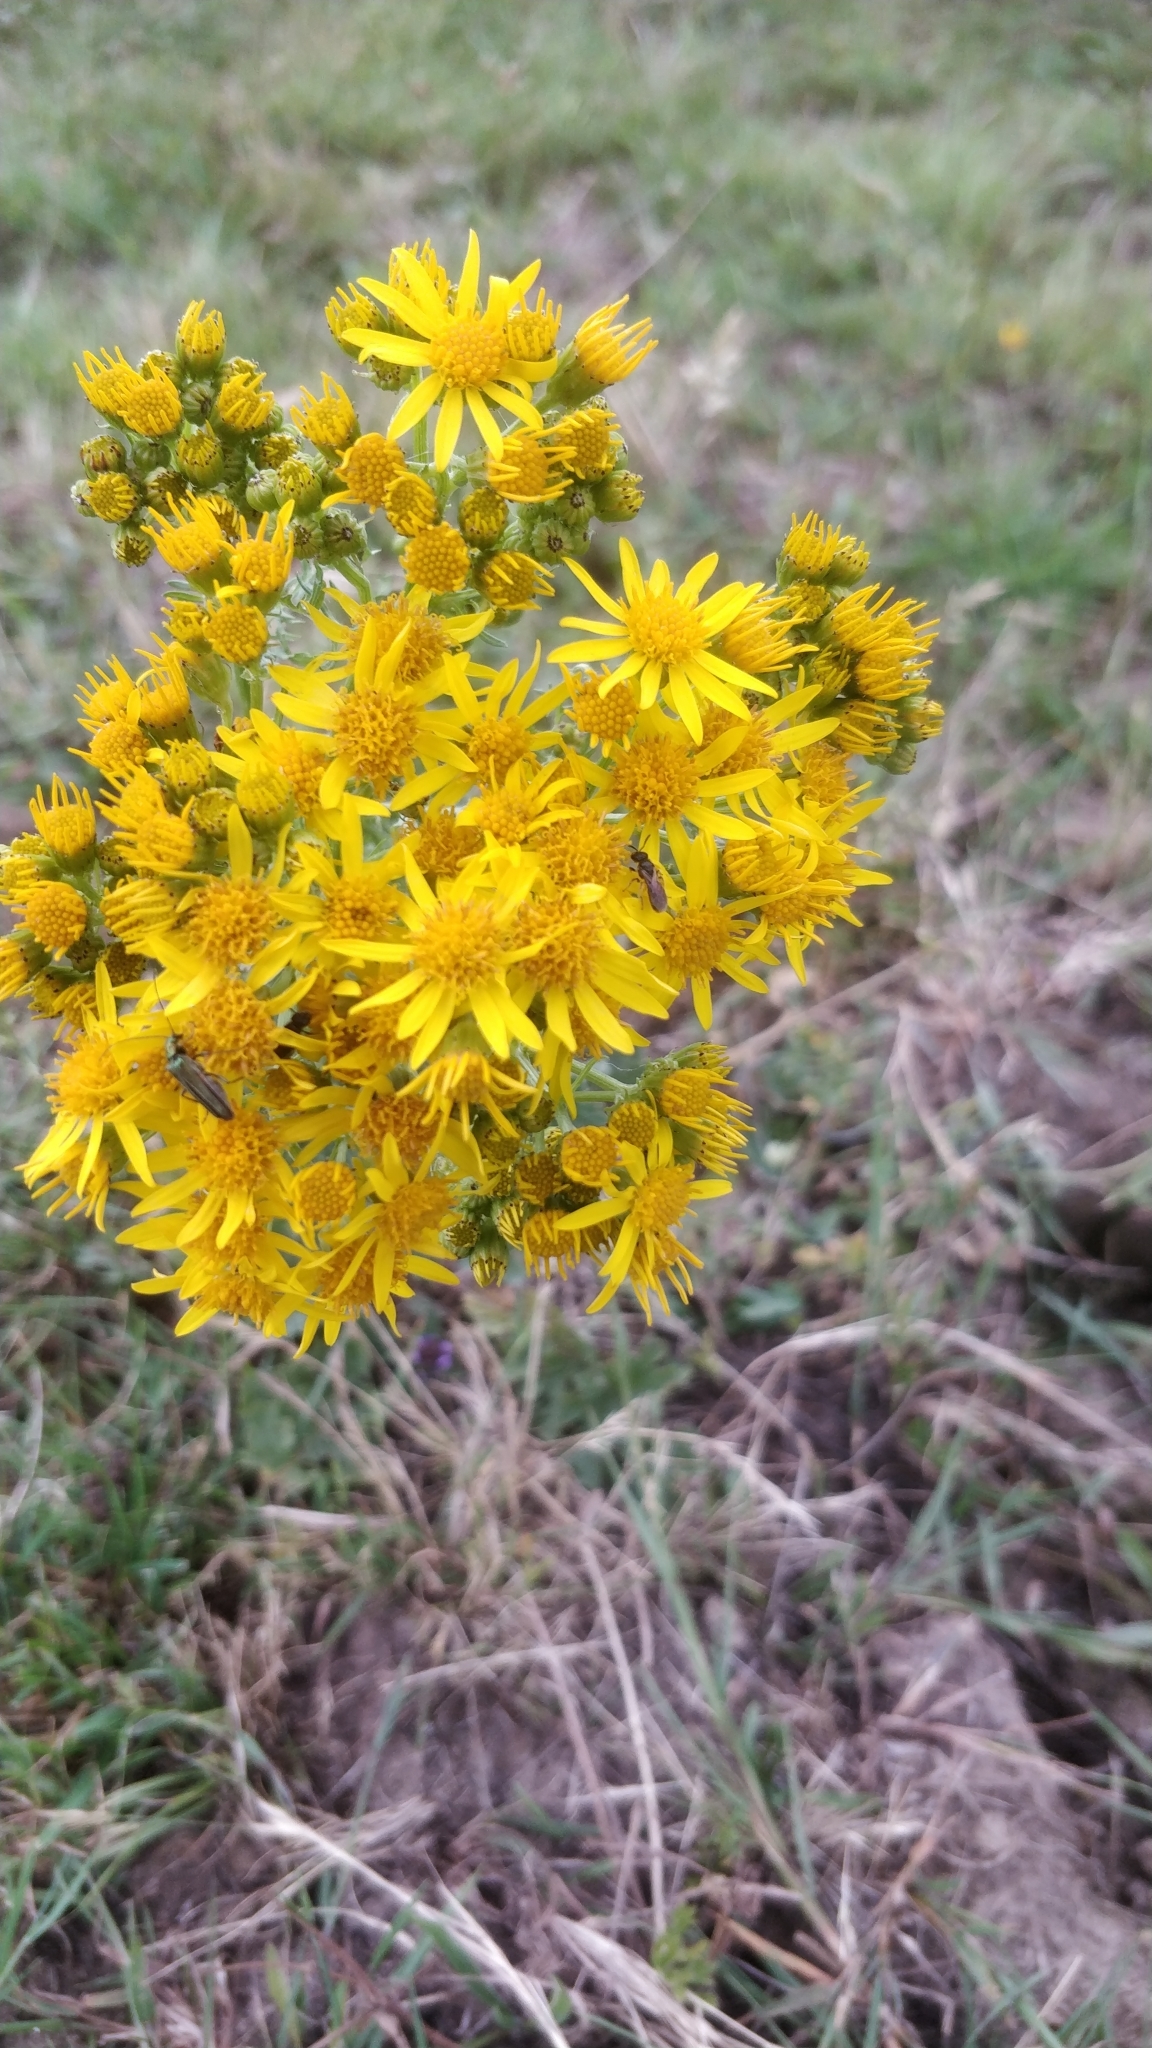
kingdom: Plantae
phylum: Tracheophyta
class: Magnoliopsida
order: Asterales
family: Asteraceae
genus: Jacobaea
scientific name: Jacobaea vulgaris
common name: Stinking willie
